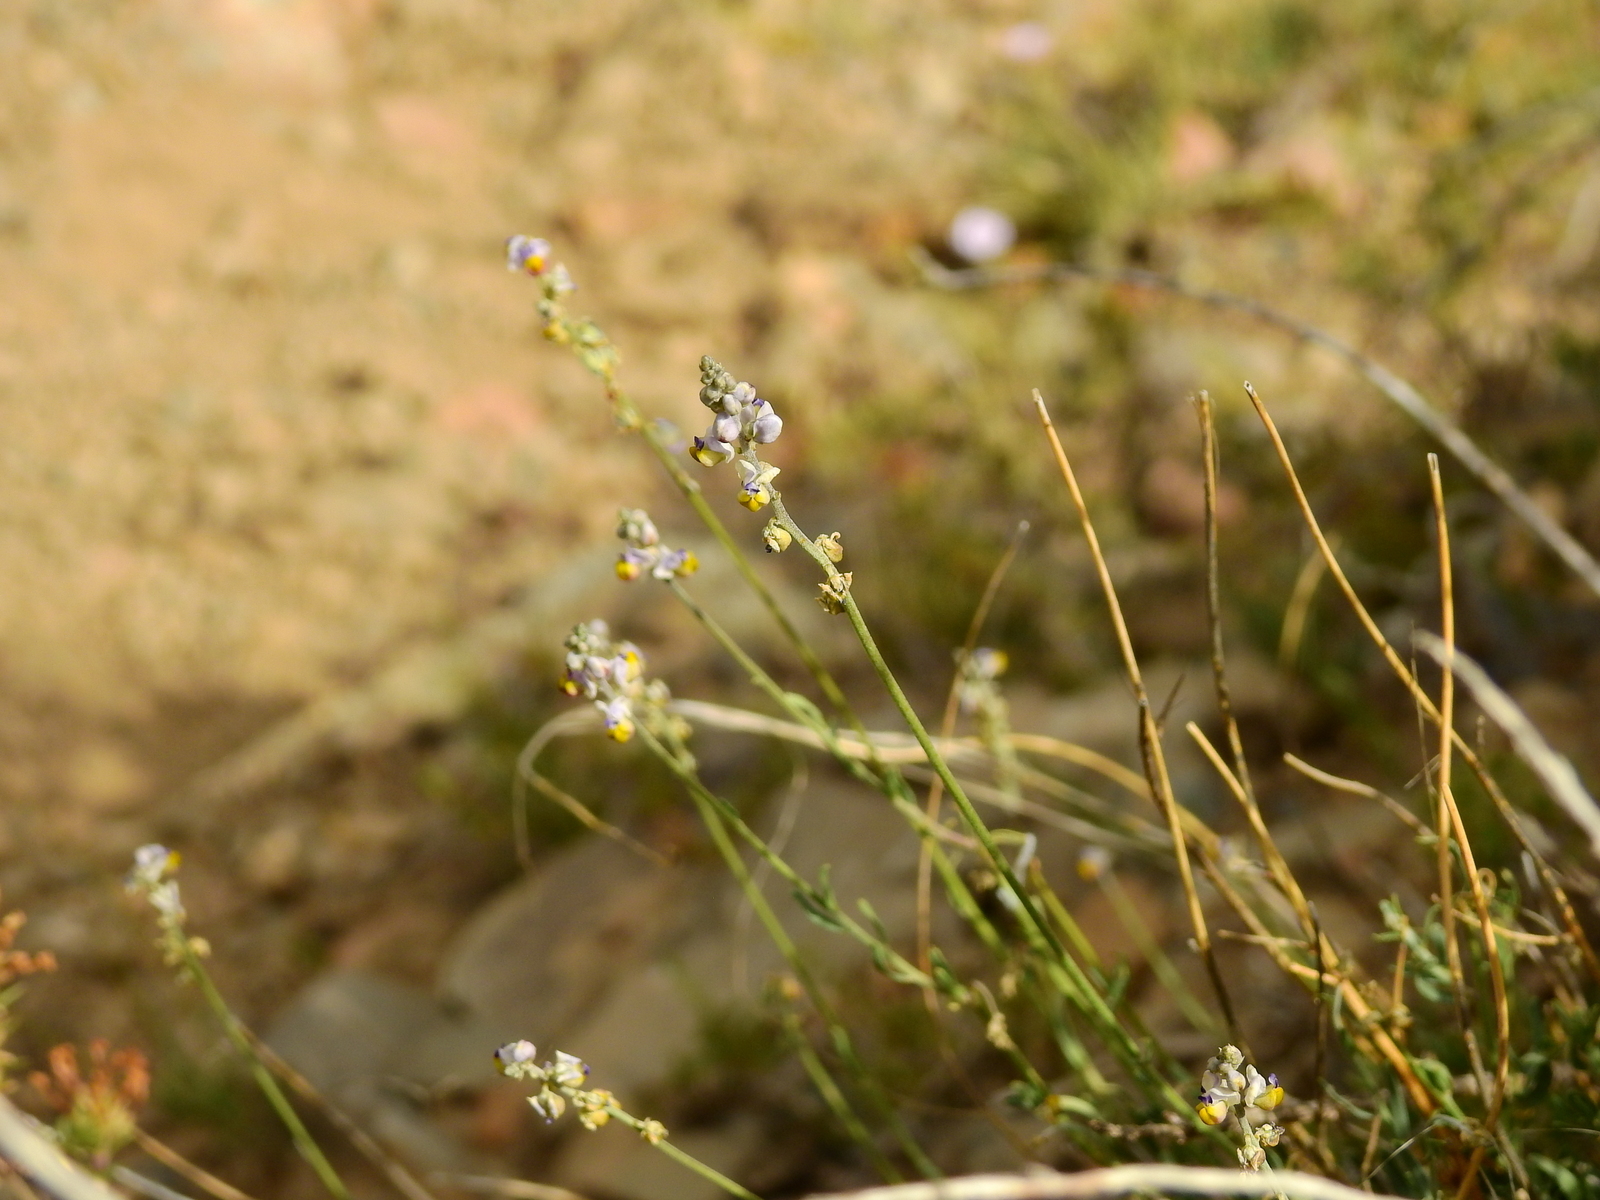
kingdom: Plantae
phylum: Tracheophyta
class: Magnoliopsida
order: Fabales
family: Polygalaceae
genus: Monnina
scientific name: Monnina dictyocarpa
